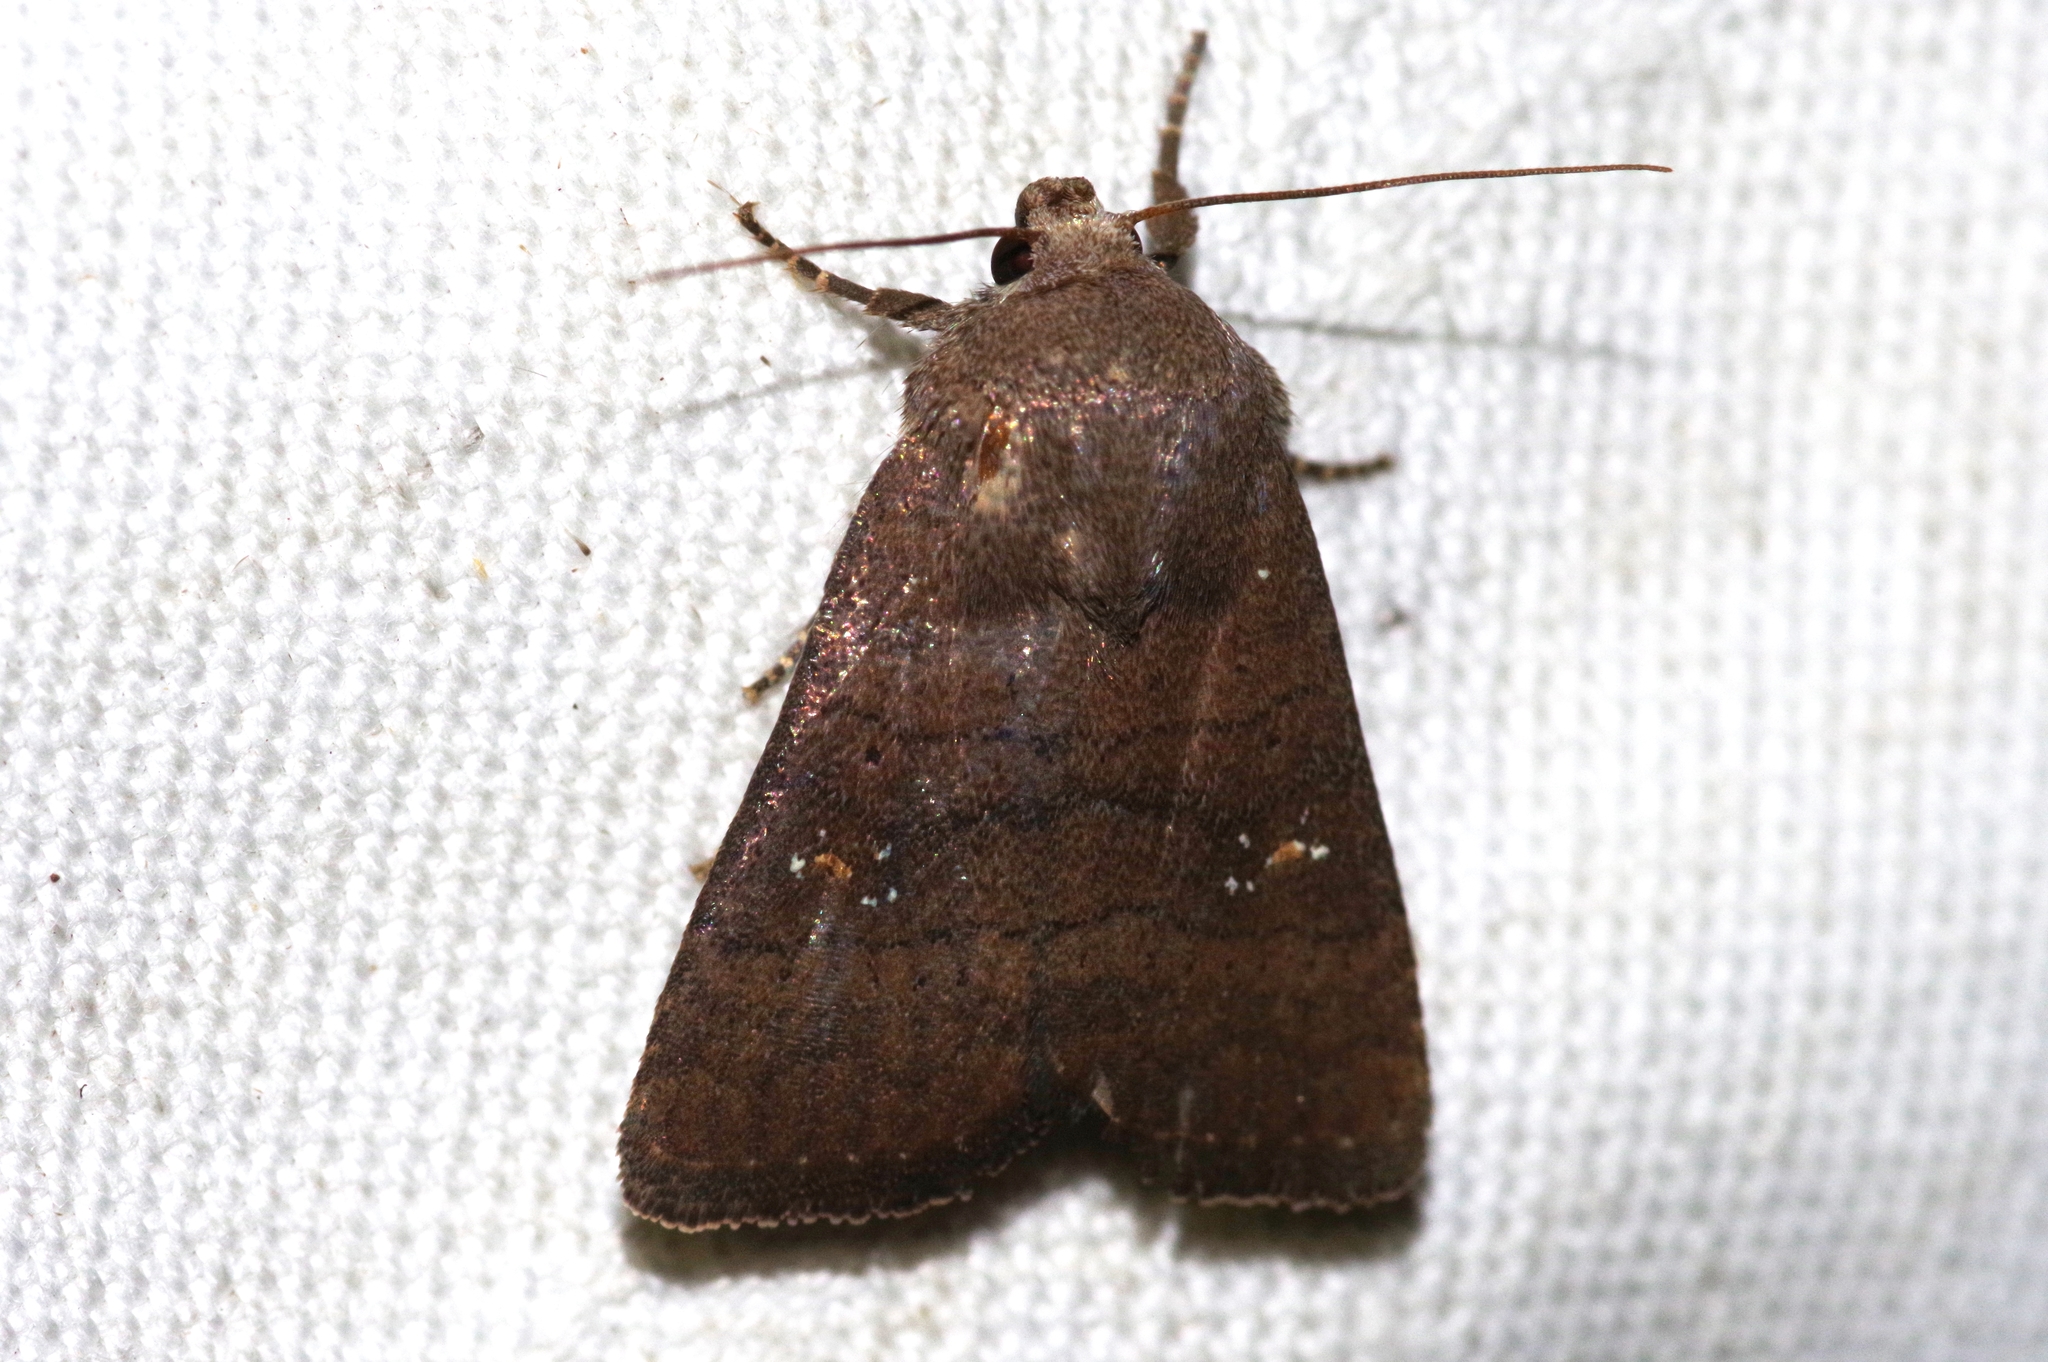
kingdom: Animalia
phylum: Arthropoda
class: Insecta
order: Lepidoptera
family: Noctuidae
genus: Athetis
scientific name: Athetis stellata
